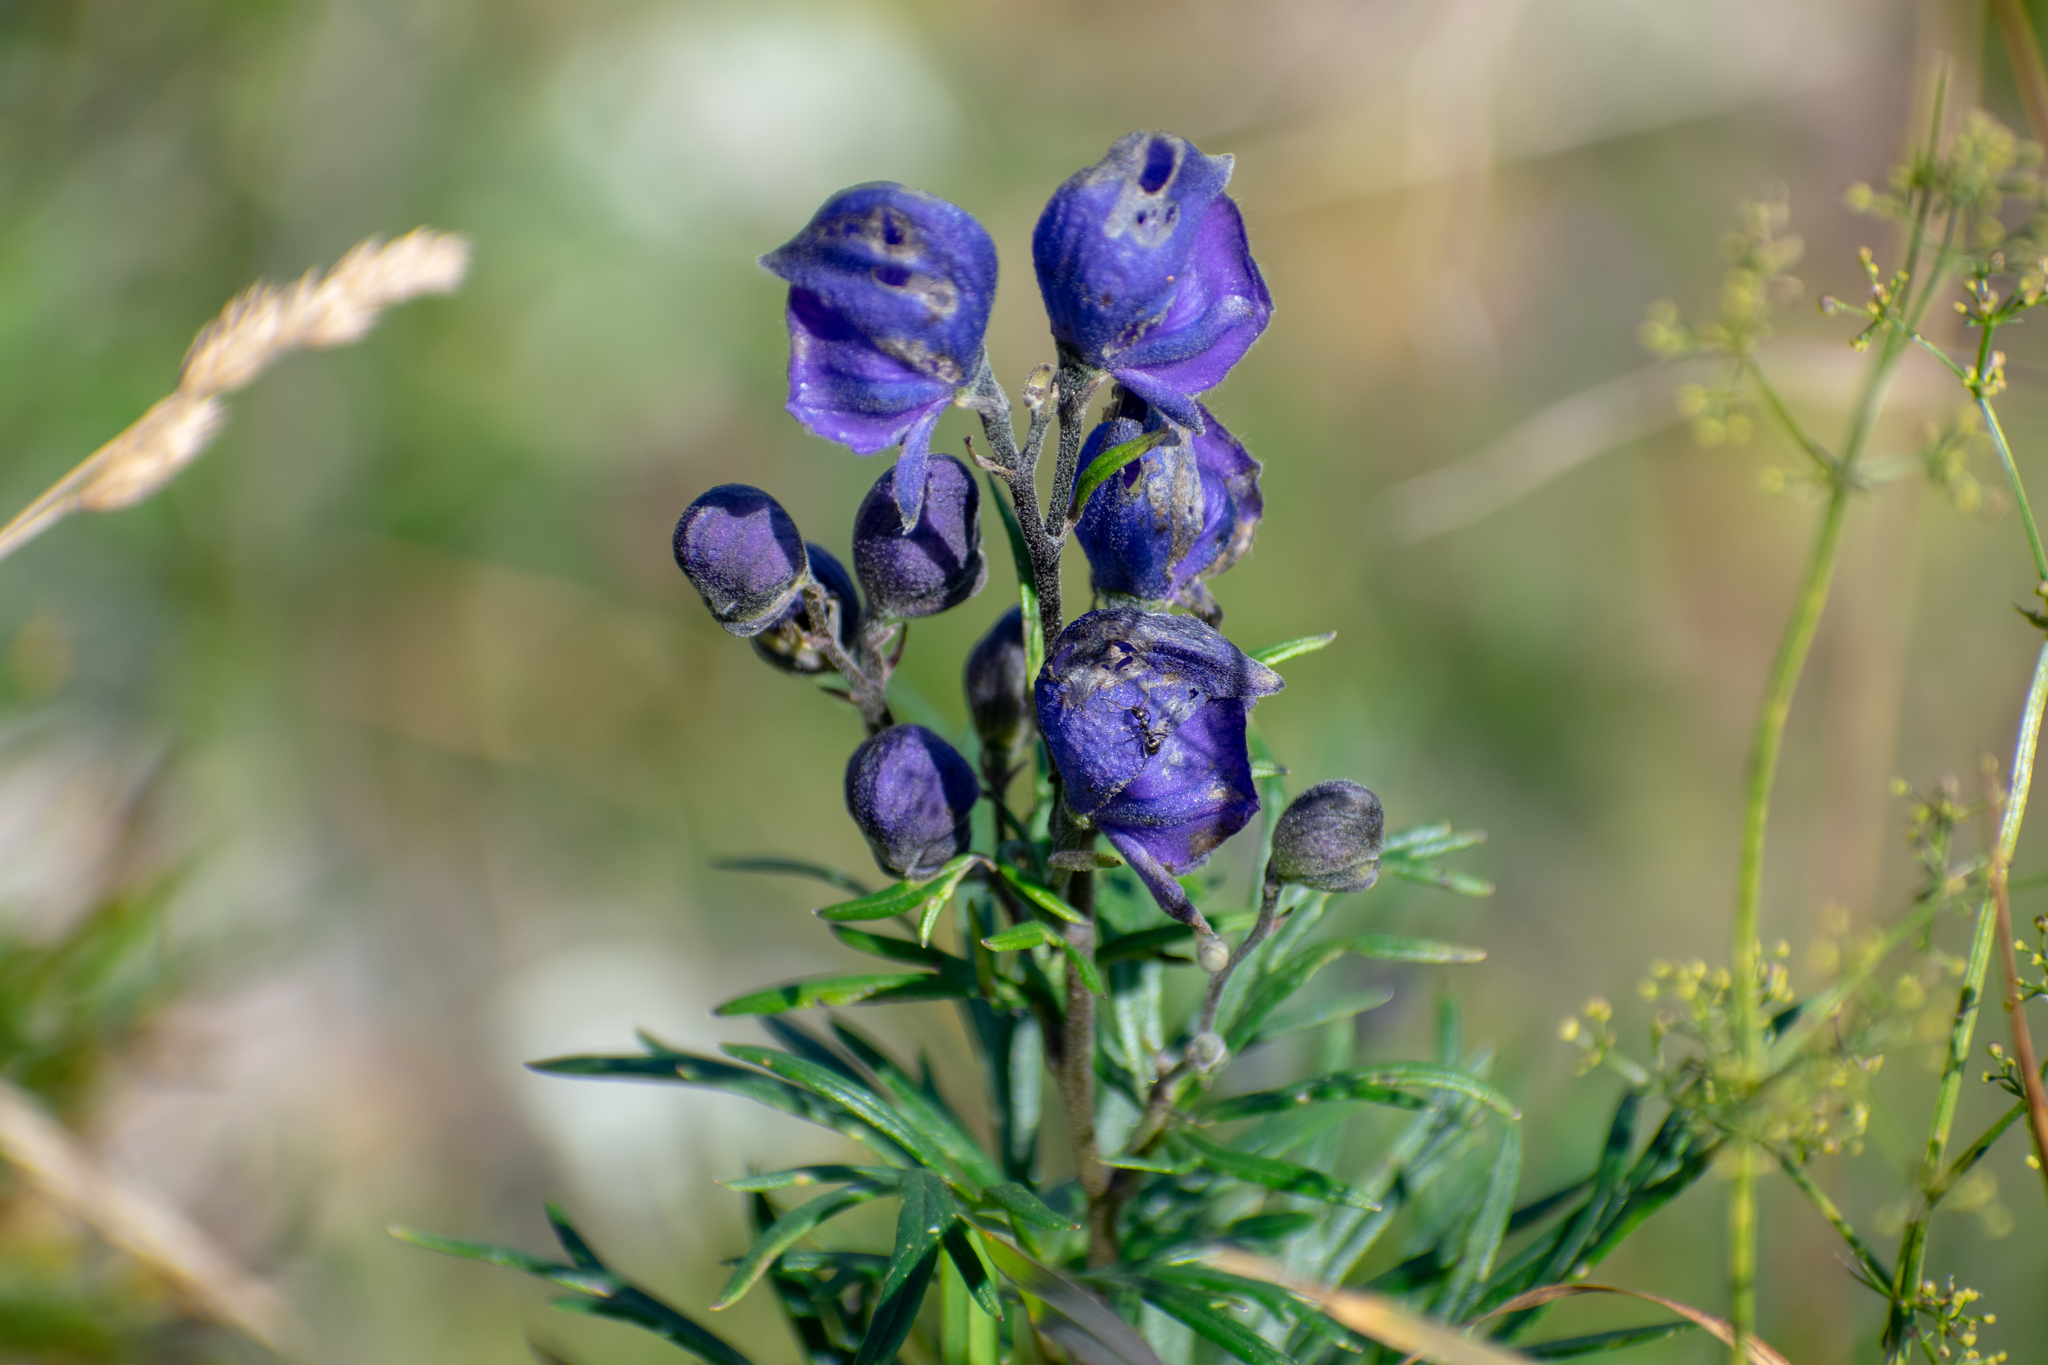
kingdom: Plantae
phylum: Tracheophyta
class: Magnoliopsida
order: Ranunculales
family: Ranunculaceae
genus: Aconitum
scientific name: Aconitum napellus
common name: Garden monkshood
